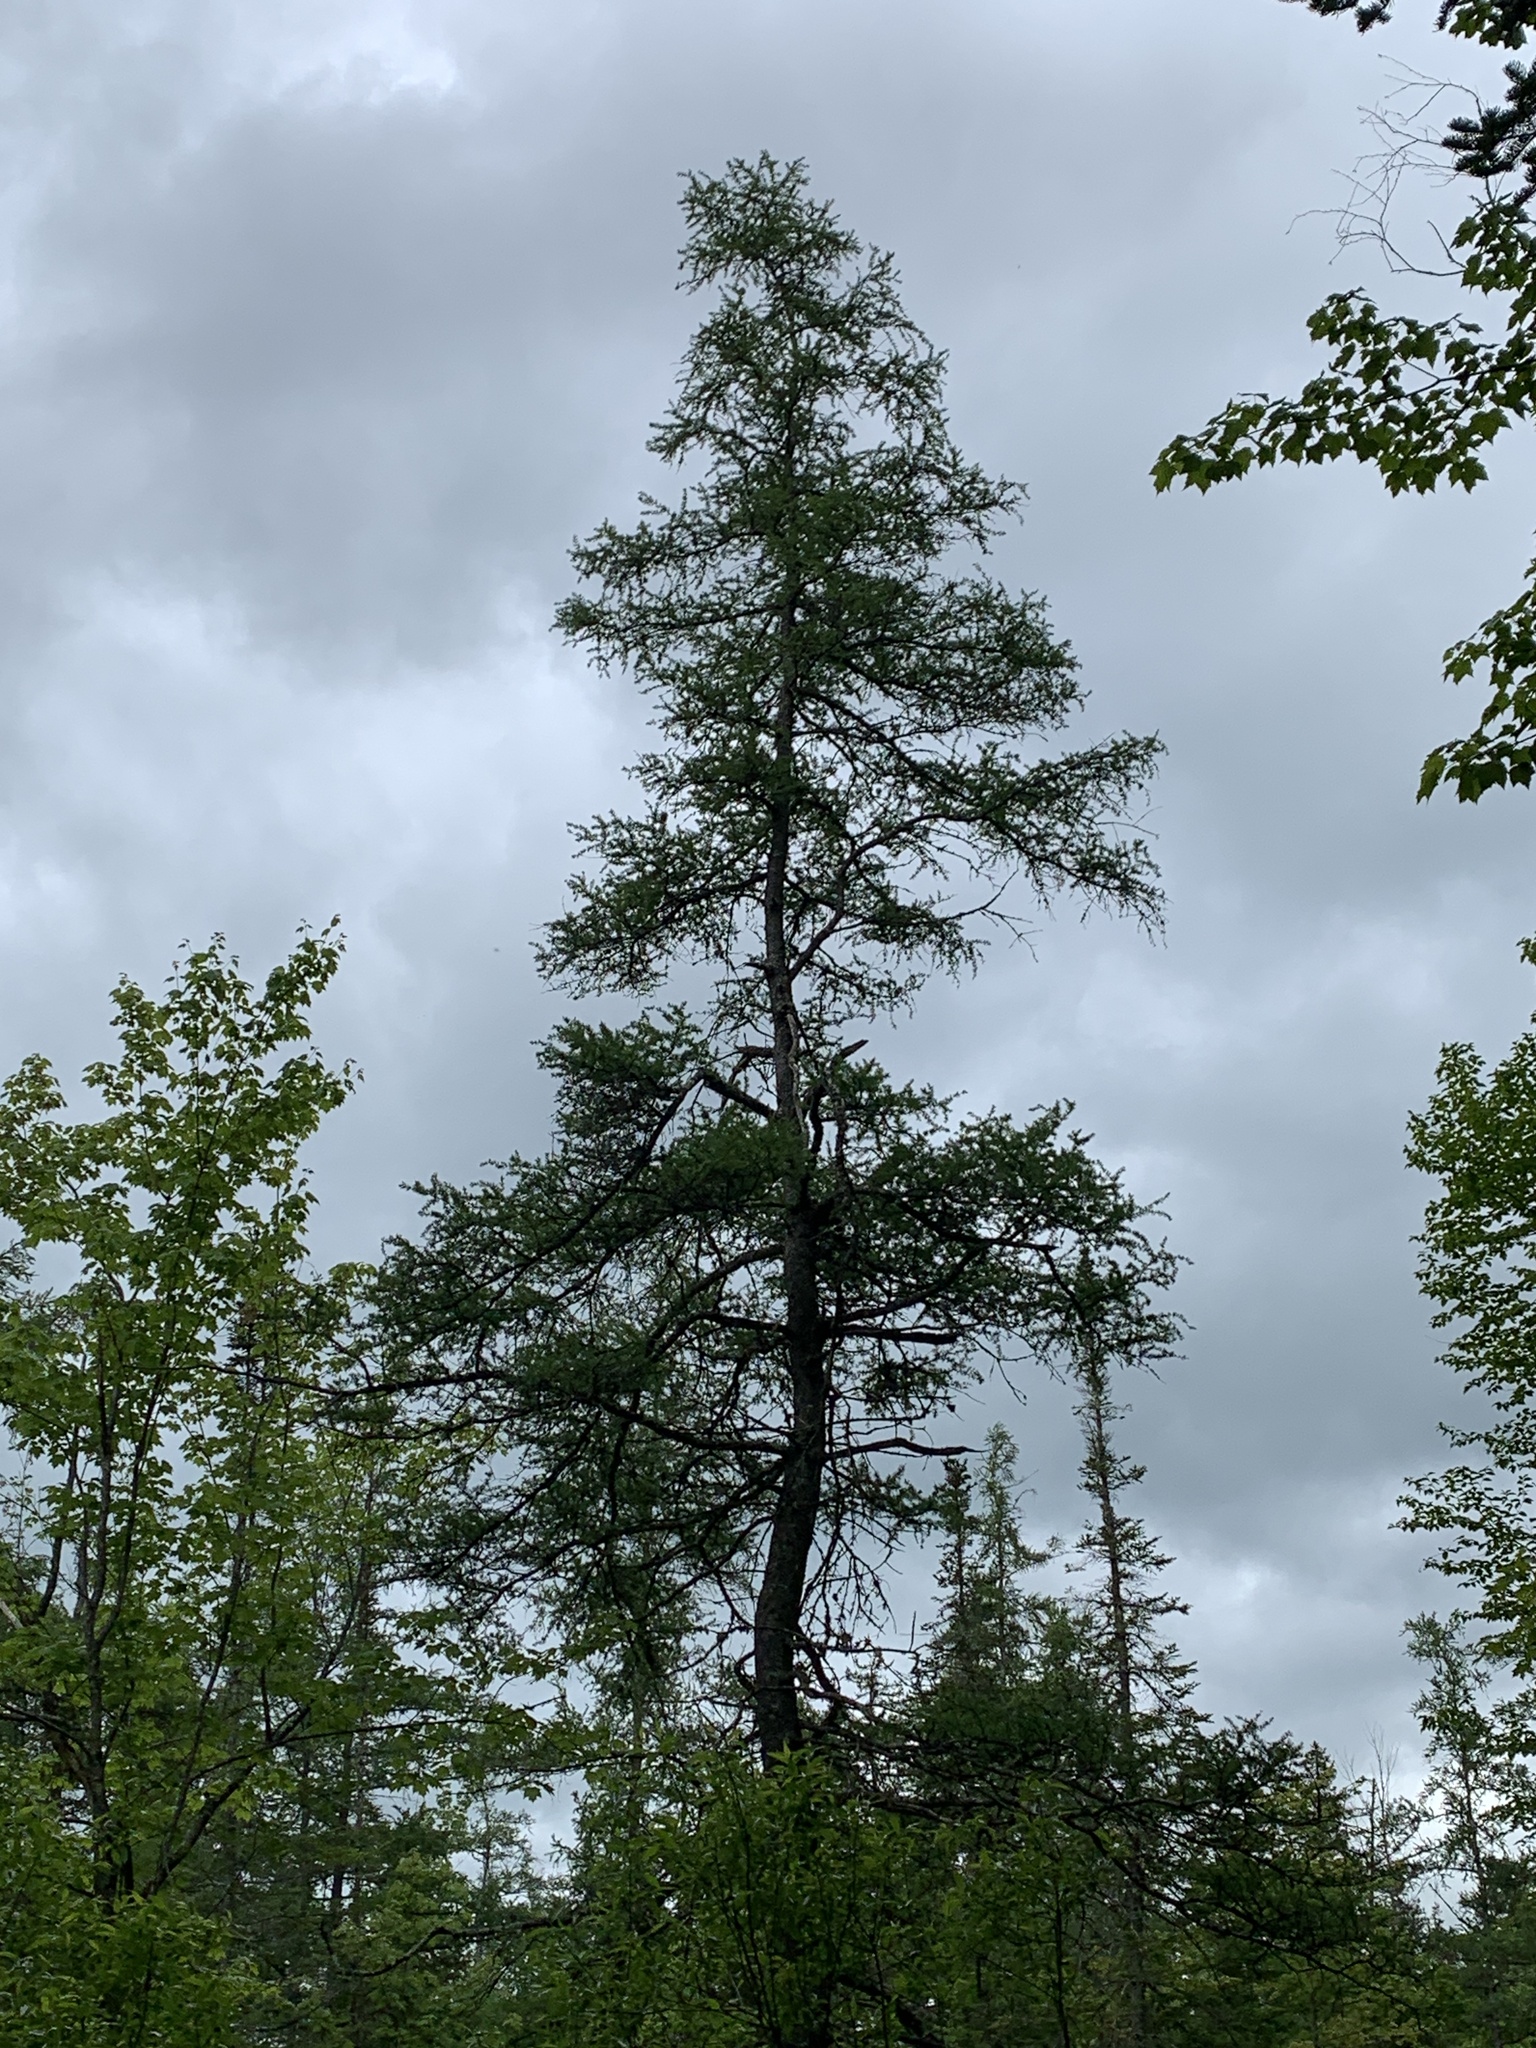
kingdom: Plantae
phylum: Tracheophyta
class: Pinopsida
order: Pinales
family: Pinaceae
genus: Larix
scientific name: Larix laricina
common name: American larch
